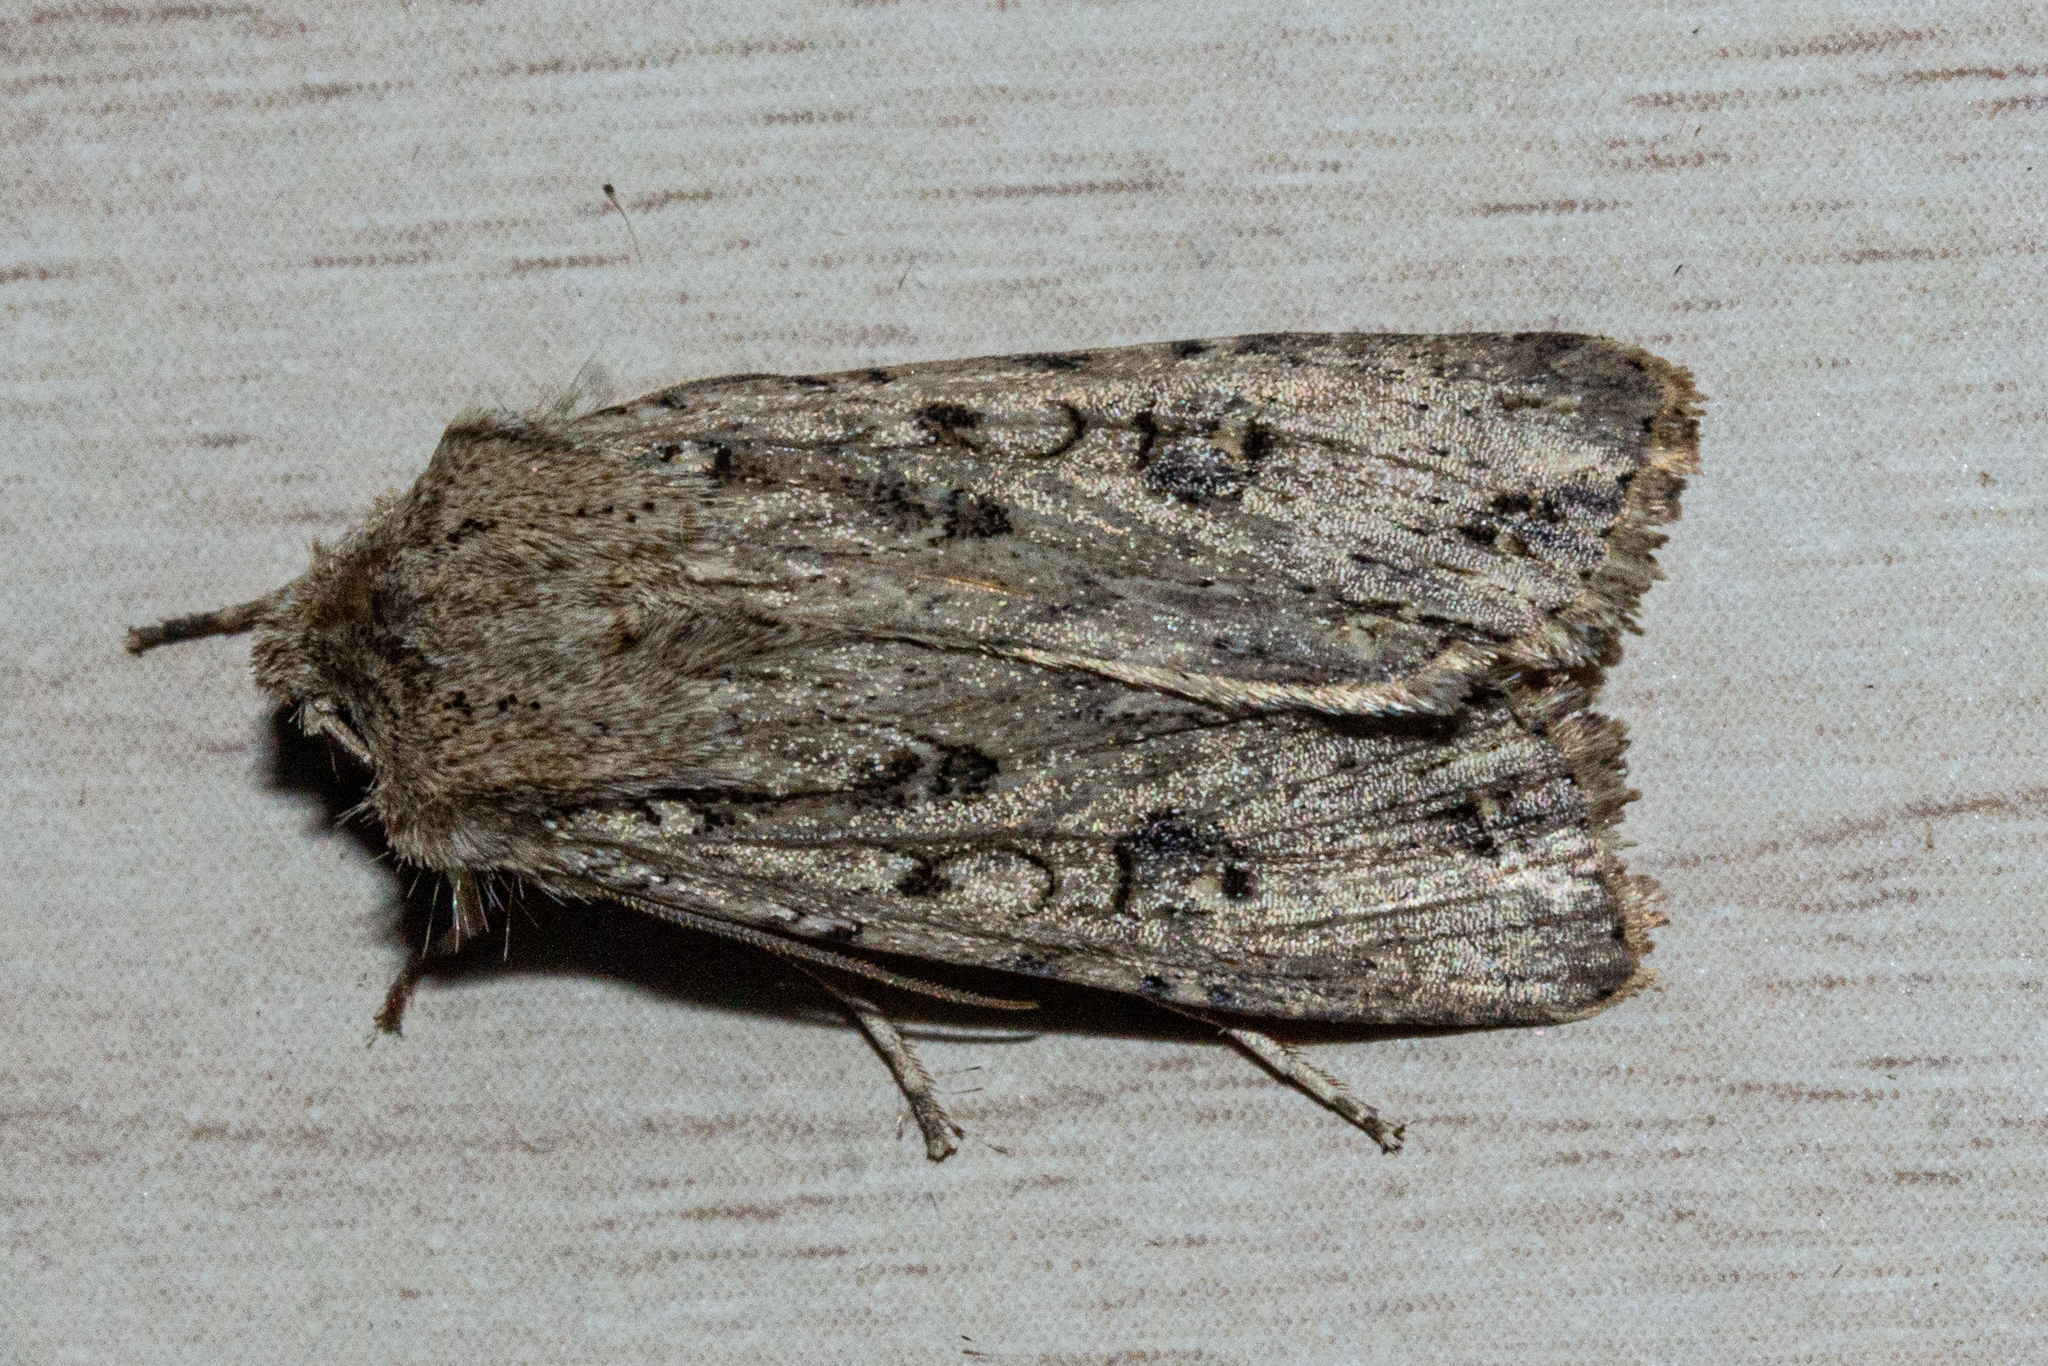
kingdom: Animalia
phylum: Arthropoda
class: Insecta
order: Lepidoptera
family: Noctuidae
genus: Ichneutica
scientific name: Ichneutica lignana
